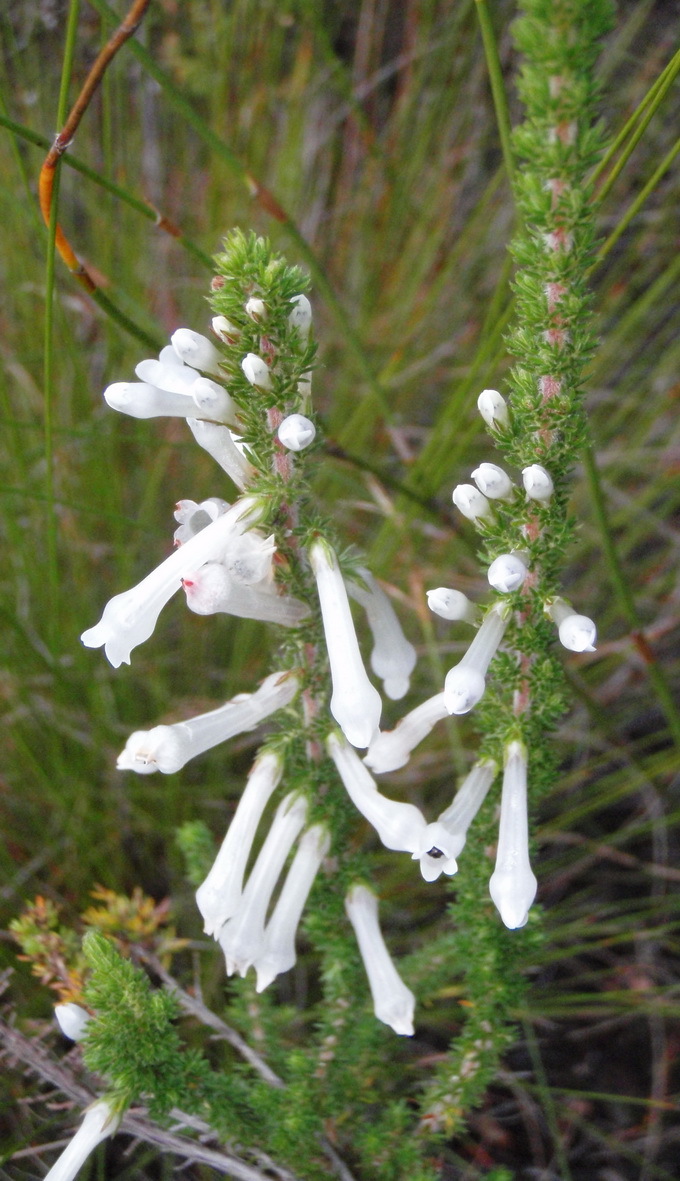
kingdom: Plantae
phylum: Tracheophyta
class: Magnoliopsida
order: Ericales
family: Ericaceae
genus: Erica
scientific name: Erica colorans
